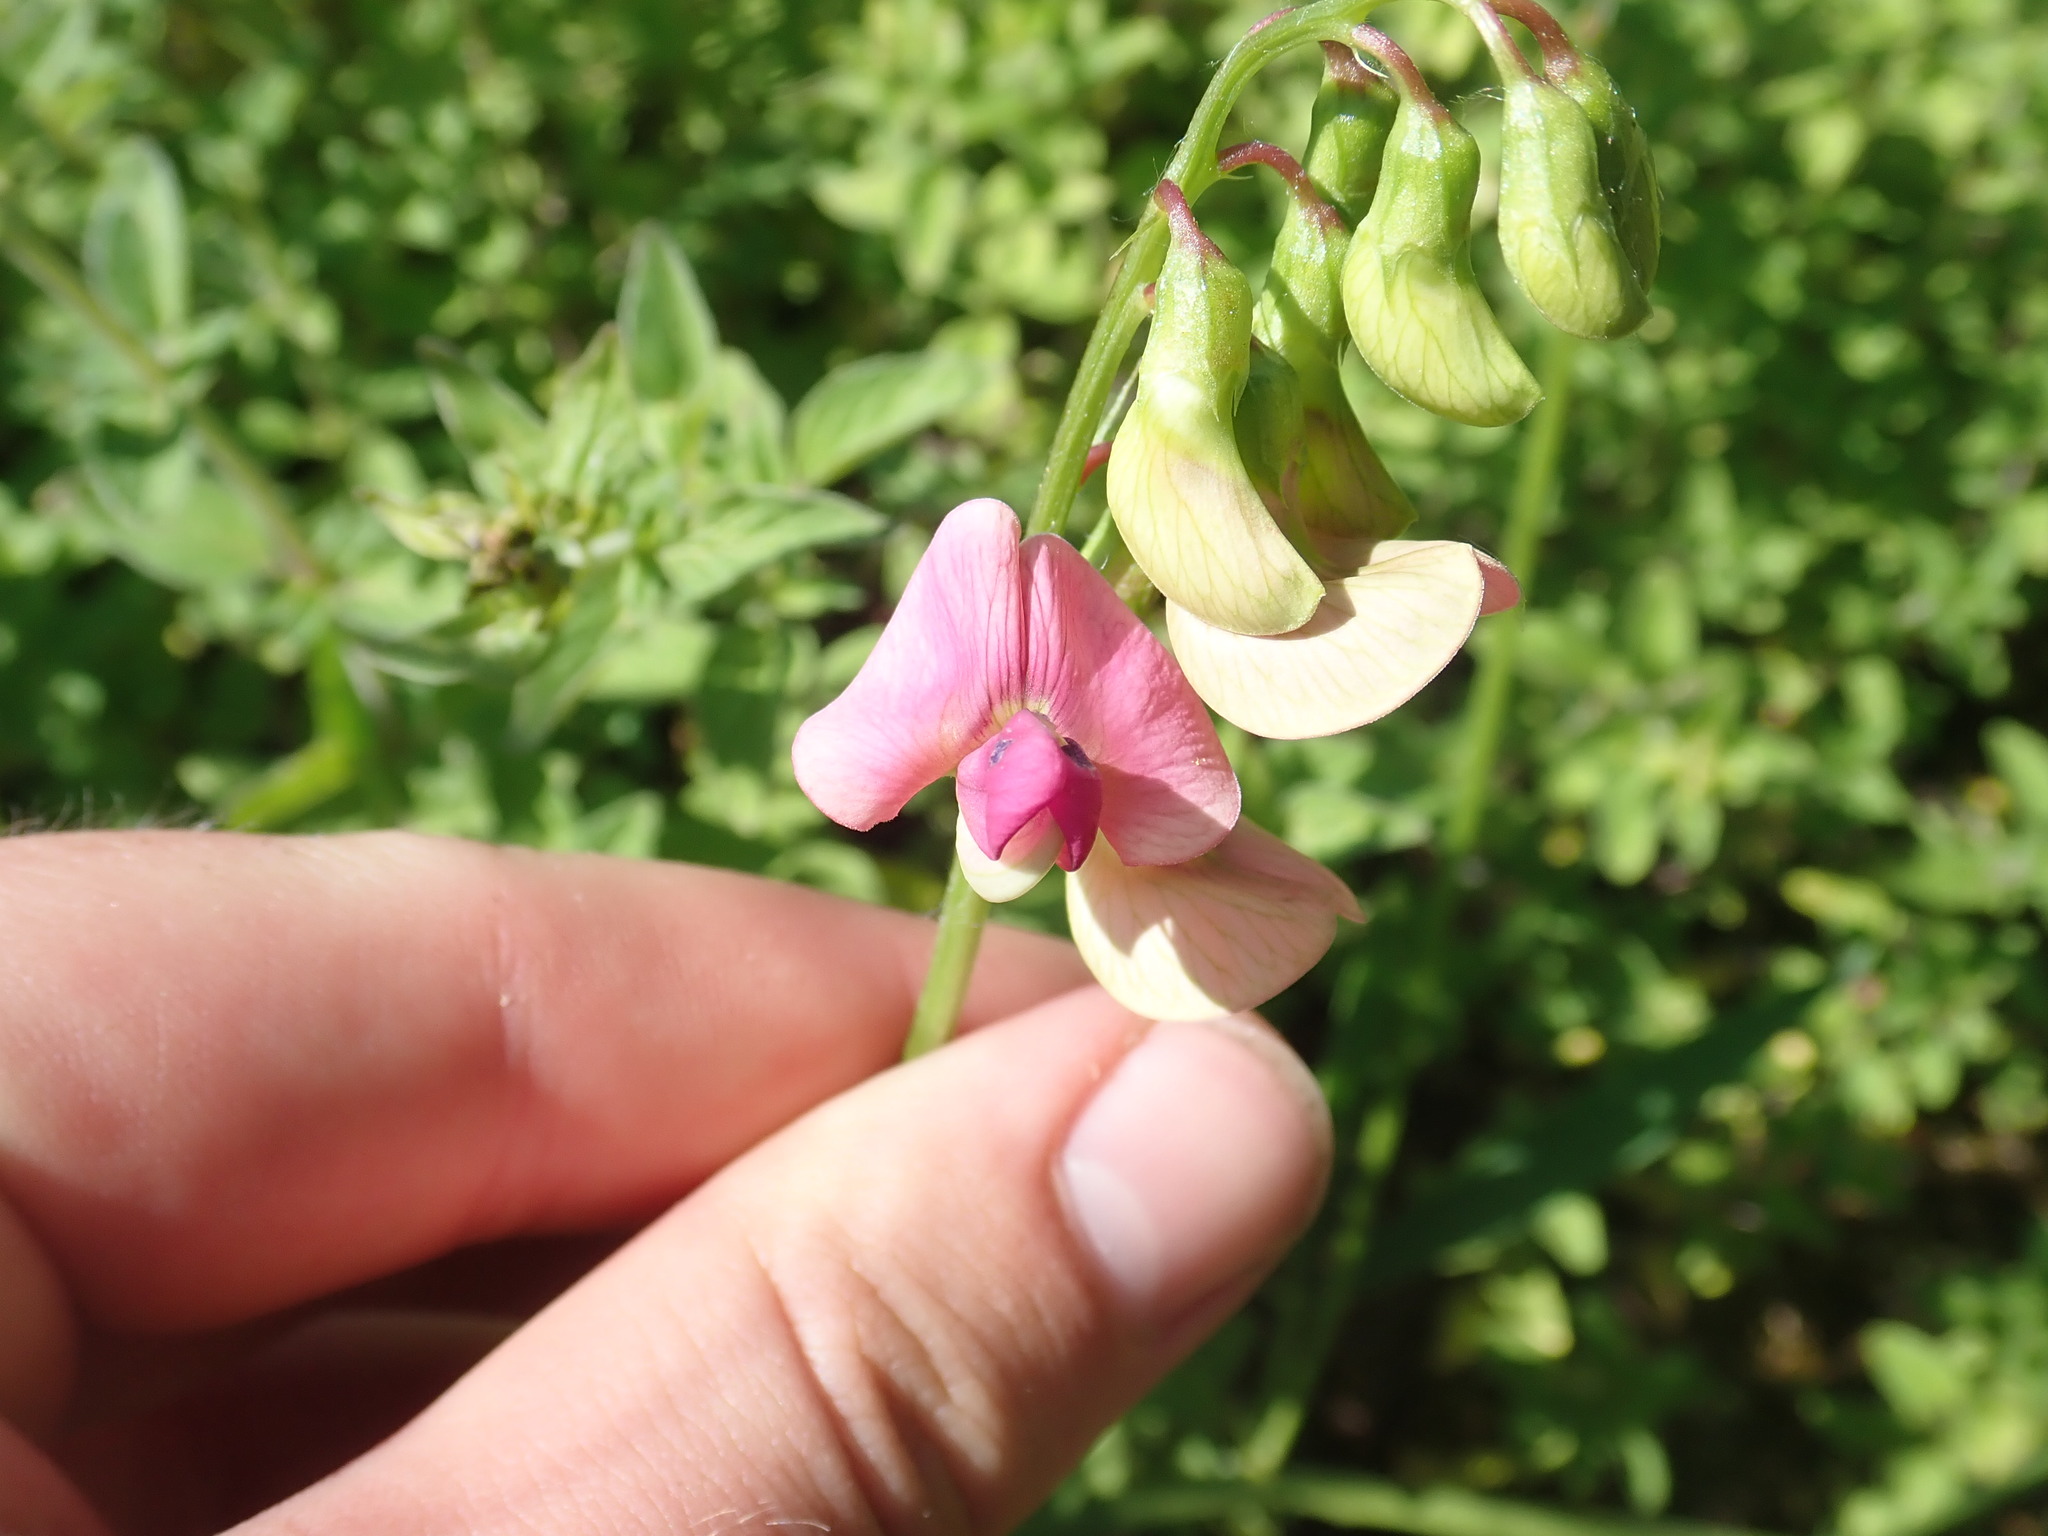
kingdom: Plantae
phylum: Tracheophyta
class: Magnoliopsida
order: Fabales
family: Fabaceae
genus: Lathyrus
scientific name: Lathyrus sylvestris
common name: Flat pea
